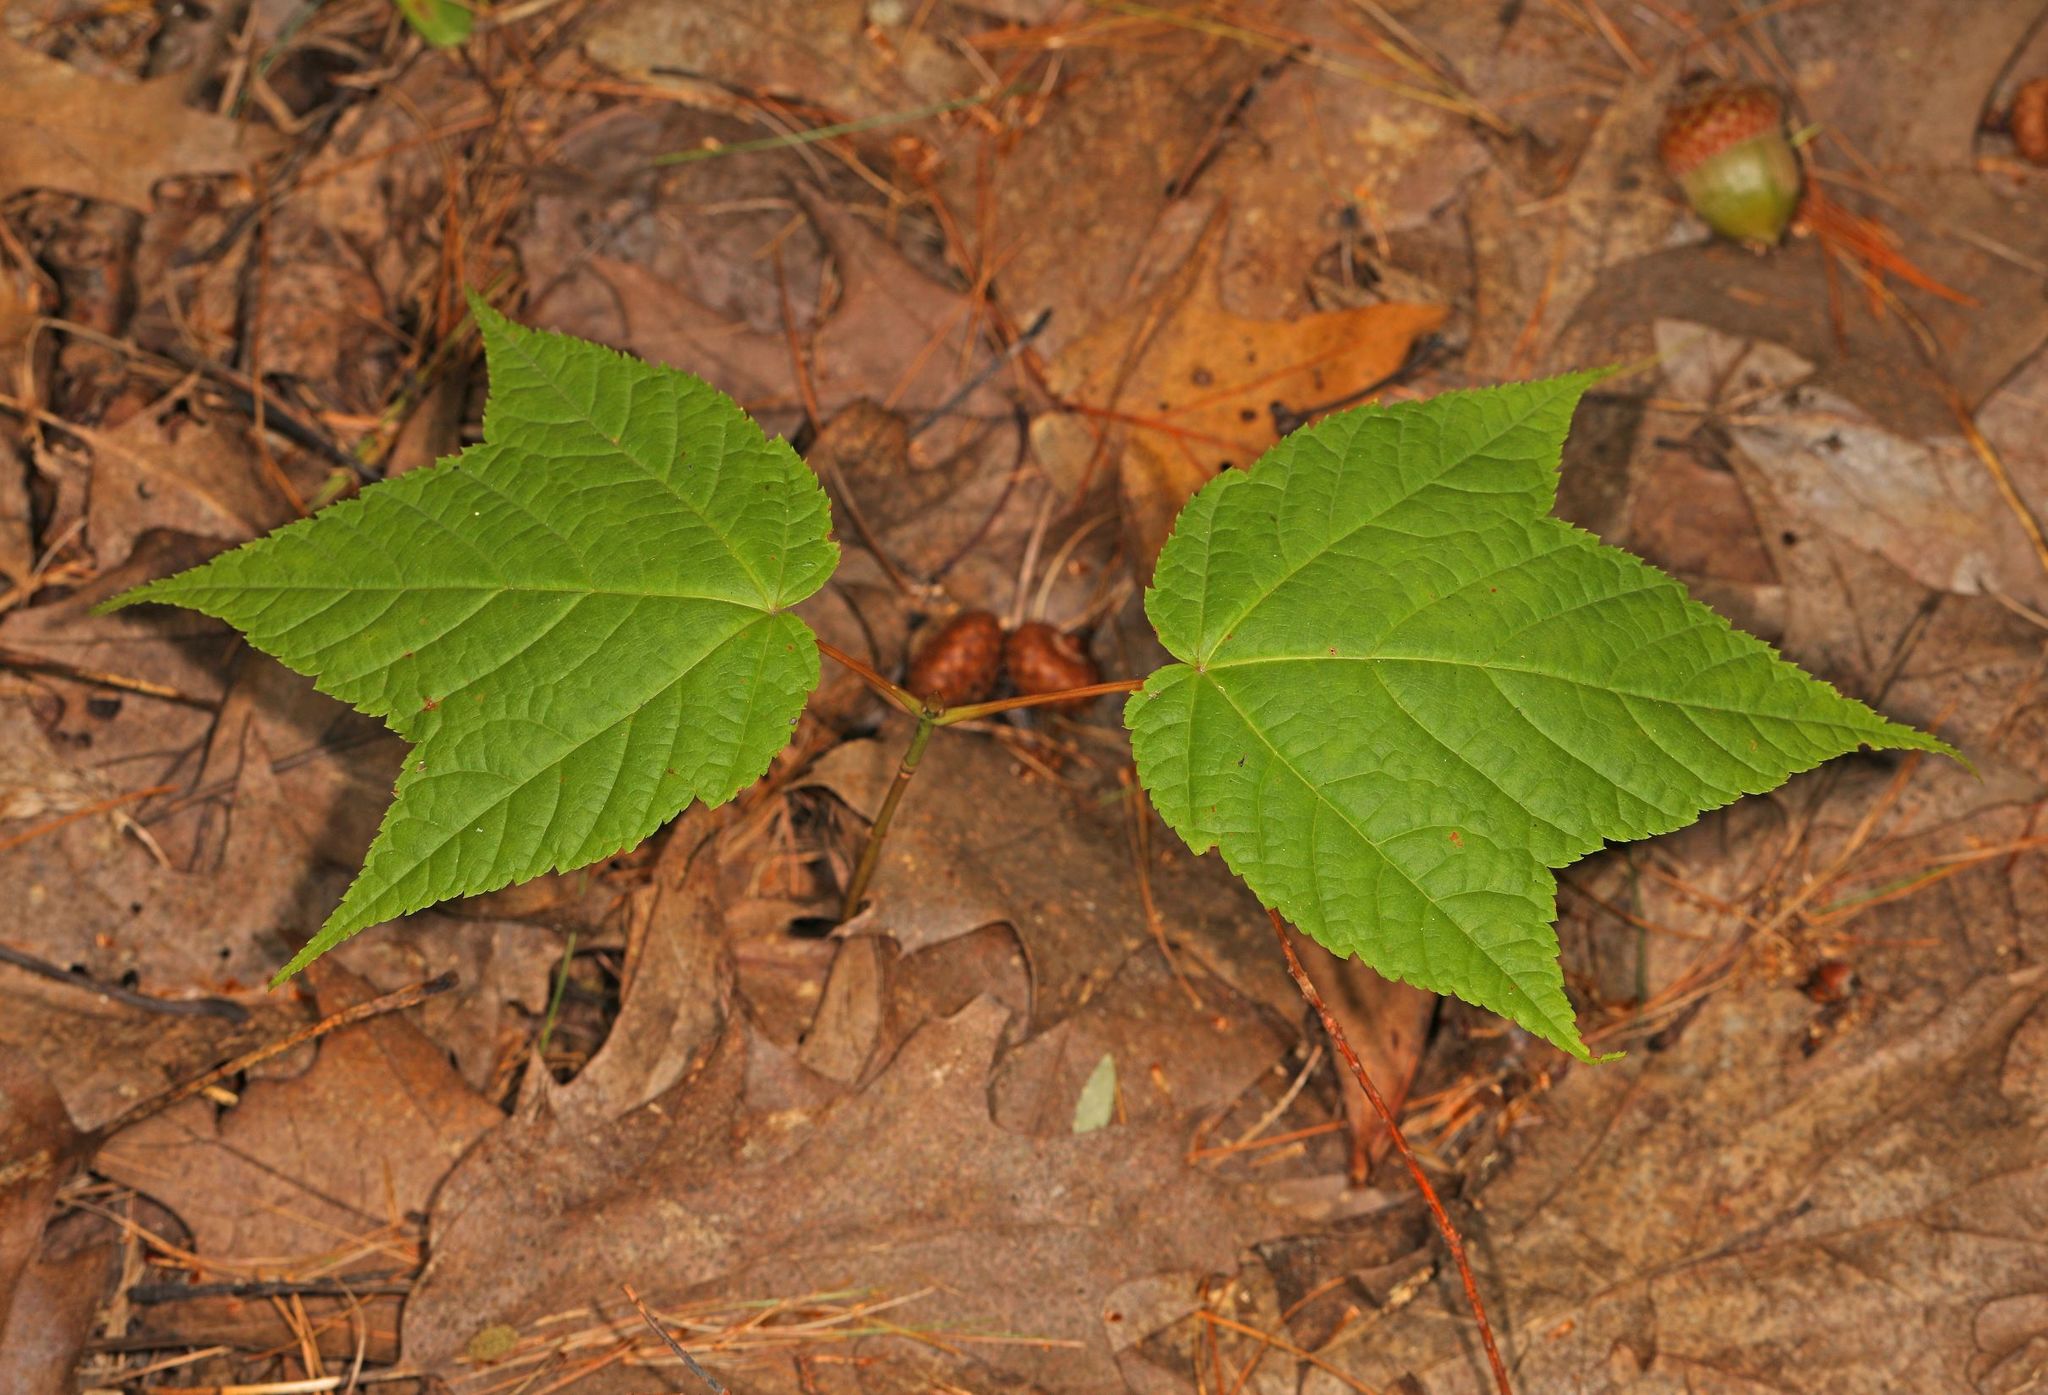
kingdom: Plantae
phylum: Tracheophyta
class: Magnoliopsida
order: Sapindales
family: Sapindaceae
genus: Acer
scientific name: Acer pensylvanicum
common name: Moosewood
